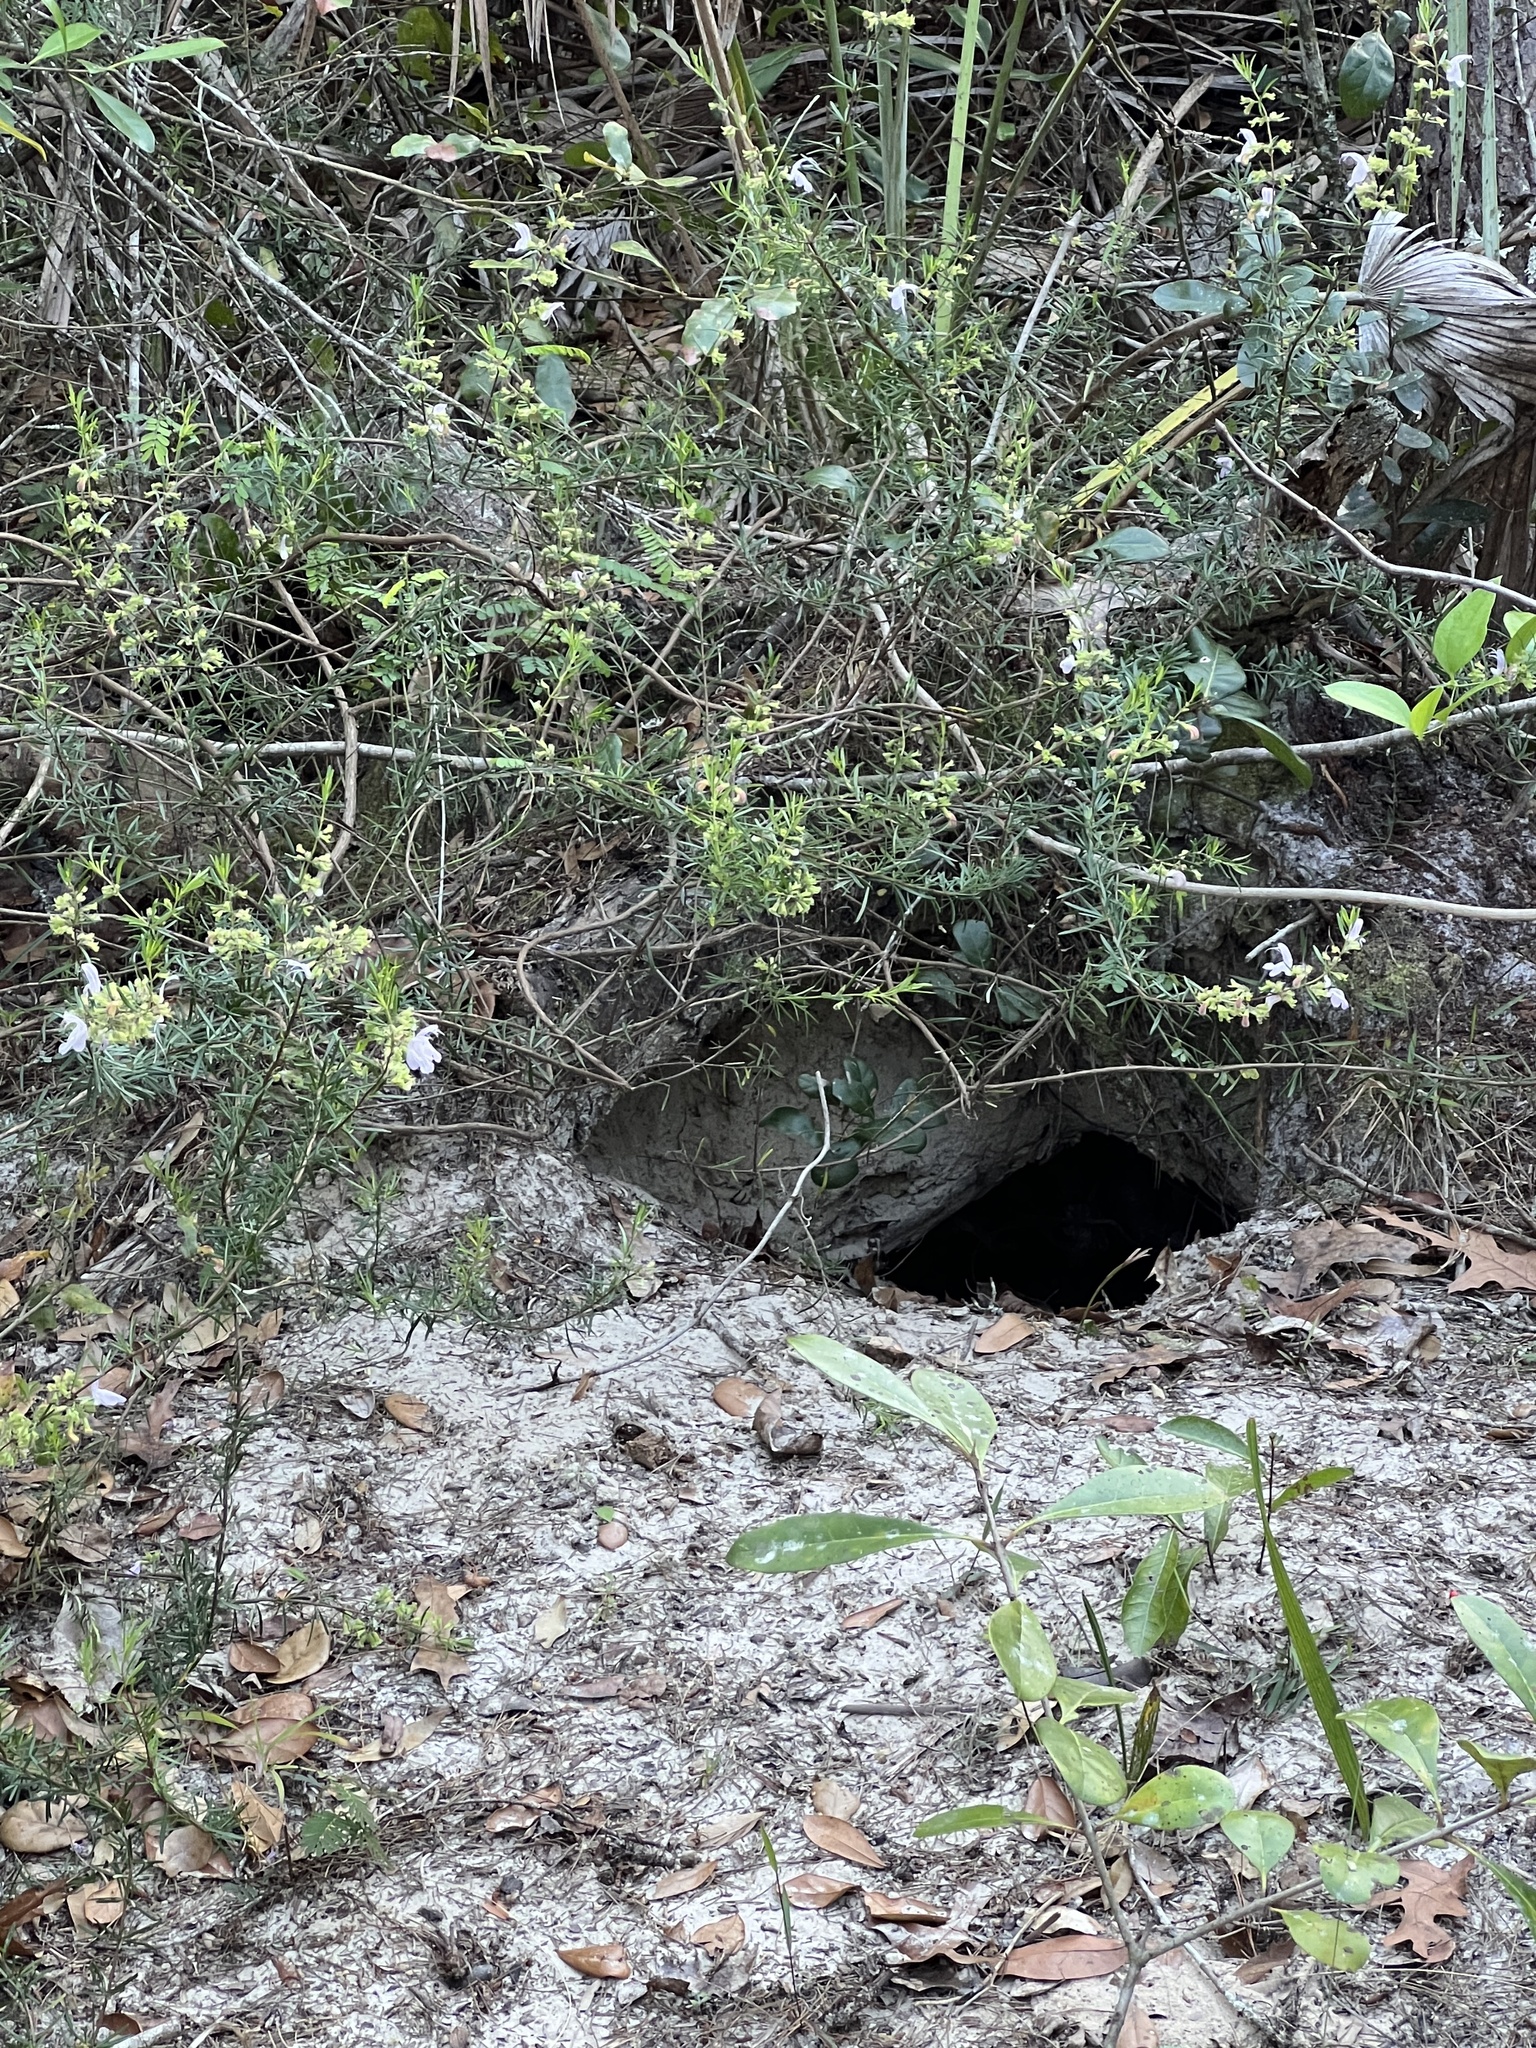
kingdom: Animalia
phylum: Chordata
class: Testudines
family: Testudinidae
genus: Gopherus
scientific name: Gopherus polyphemus
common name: Florida gopher tortoise
